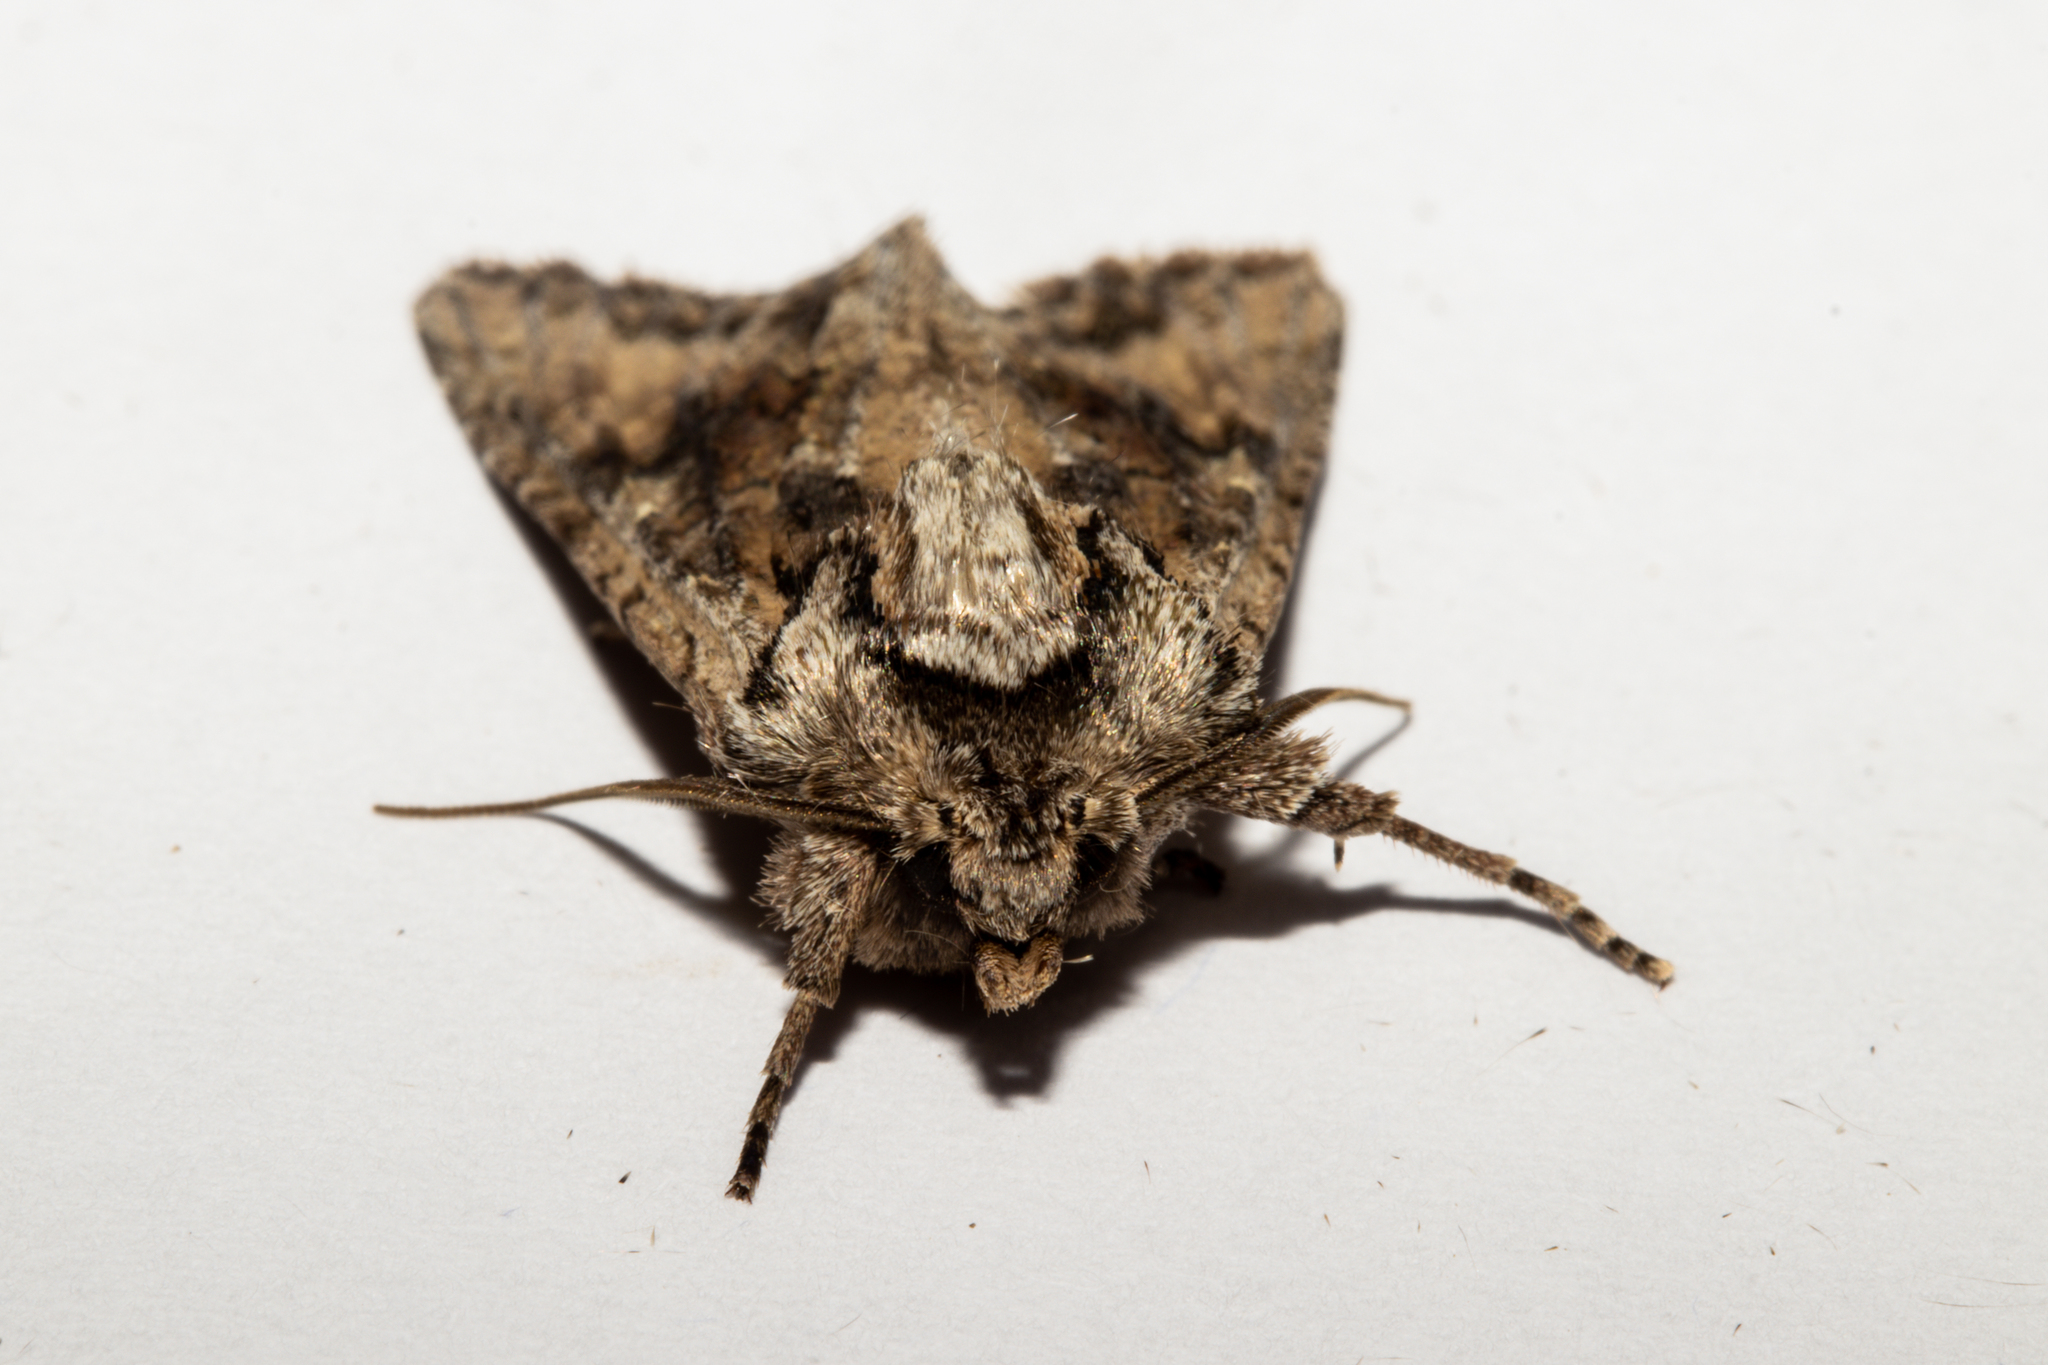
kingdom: Animalia
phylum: Arthropoda
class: Insecta
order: Lepidoptera
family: Noctuidae
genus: Ichneutica
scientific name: Ichneutica mutans
